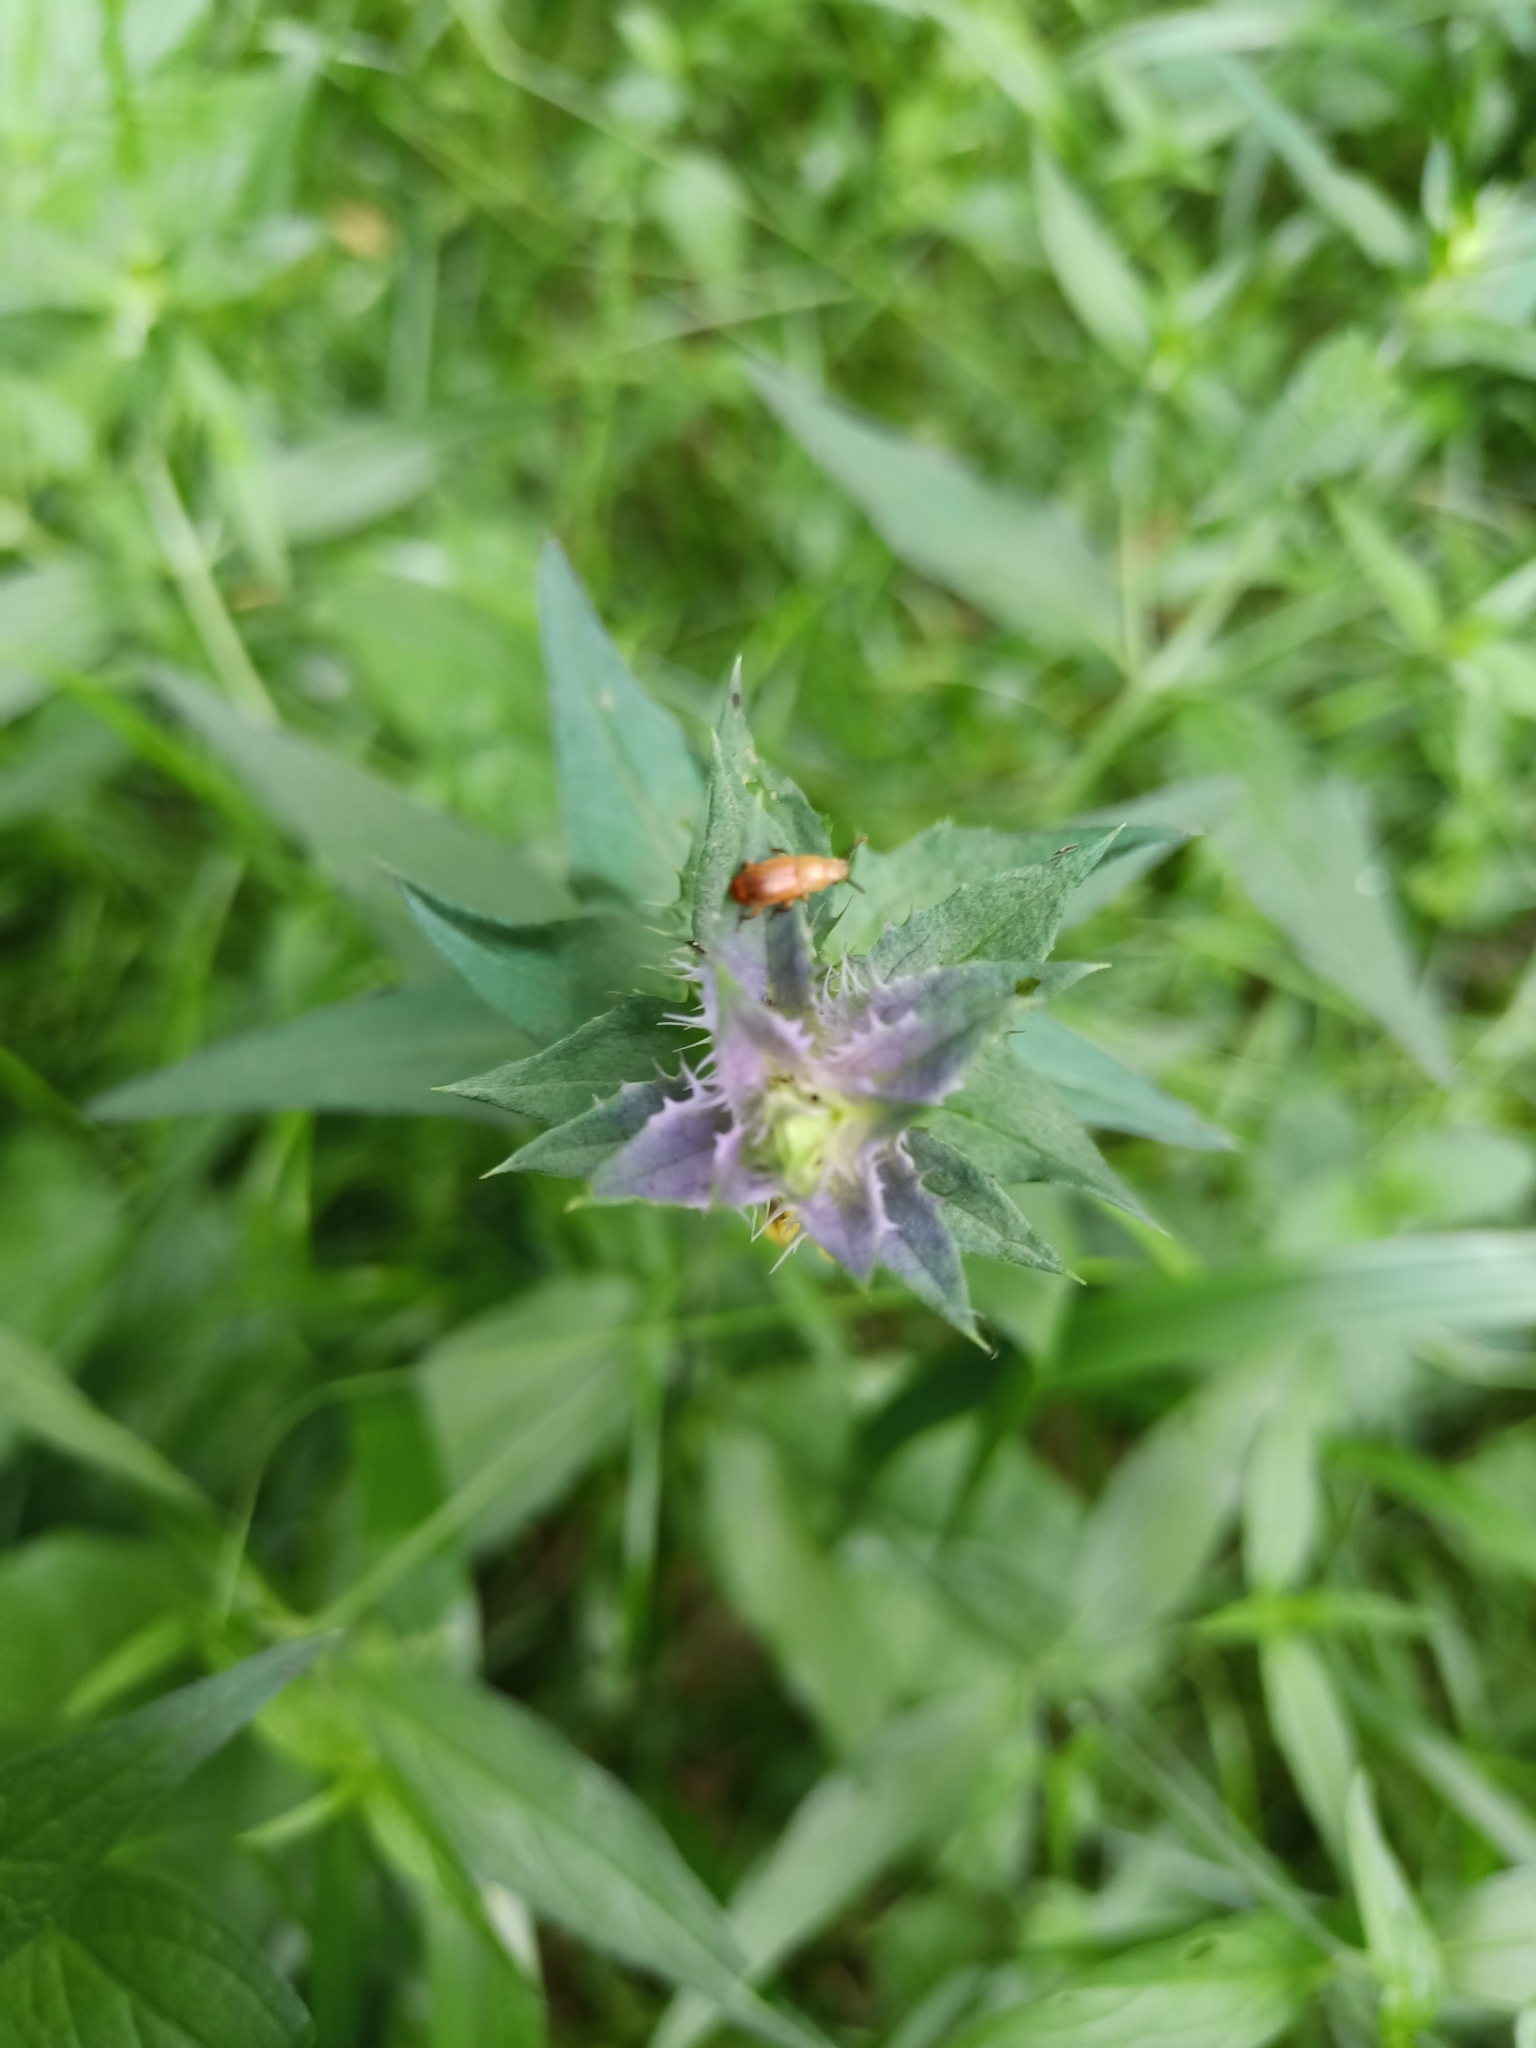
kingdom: Animalia
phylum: Arthropoda
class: Insecta
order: Coleoptera
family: Cryptophagidae
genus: Antherophagus
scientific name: Antherophagus pallens
